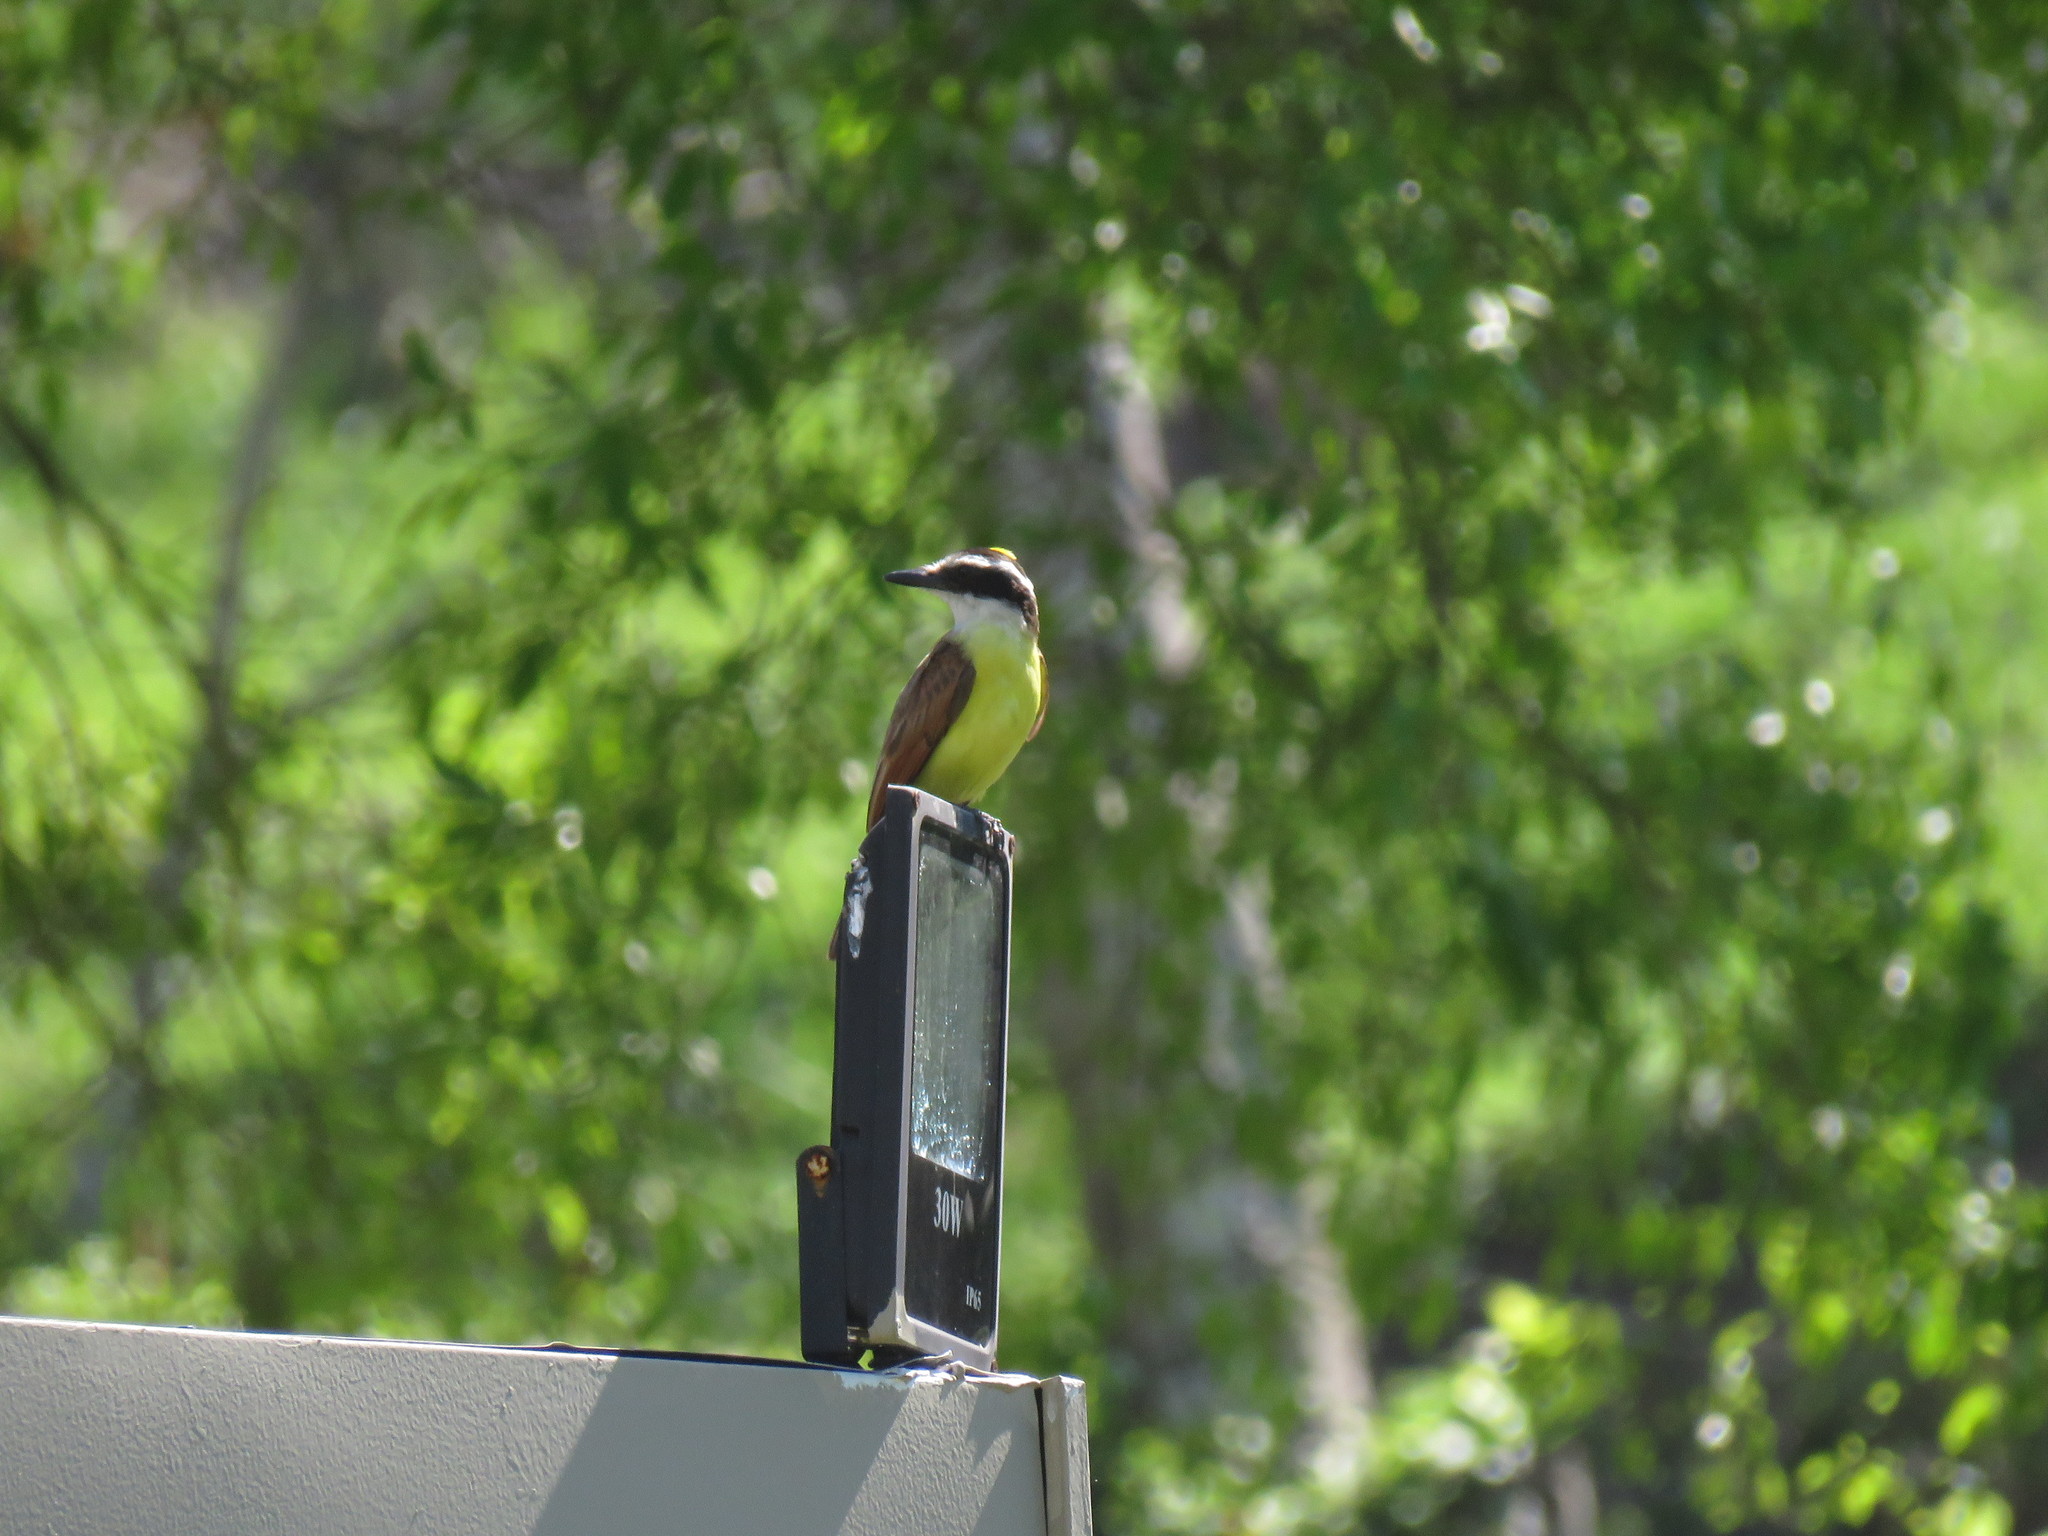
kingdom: Animalia
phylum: Chordata
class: Aves
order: Passeriformes
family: Tyrannidae
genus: Pitangus
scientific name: Pitangus sulphuratus
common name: Great kiskadee
